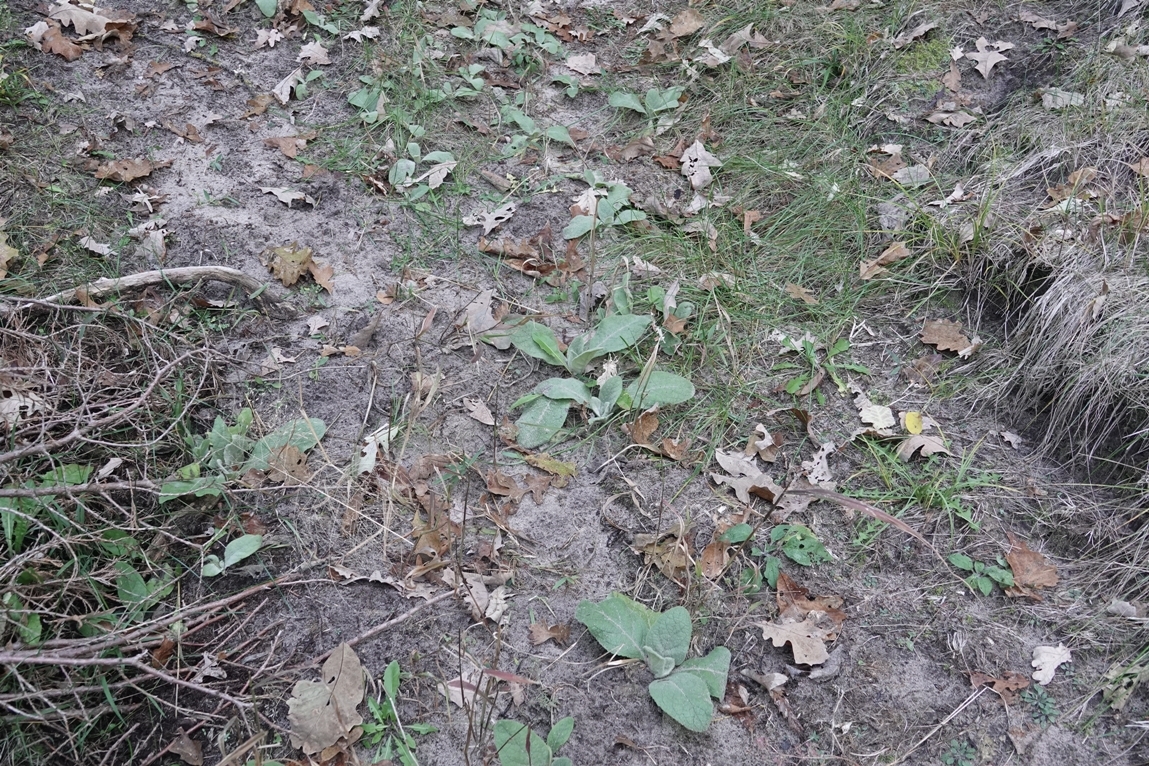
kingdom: Plantae
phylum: Tracheophyta
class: Magnoliopsida
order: Lamiales
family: Scrophulariaceae
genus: Verbascum
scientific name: Verbascum thapsus
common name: Common mullein
